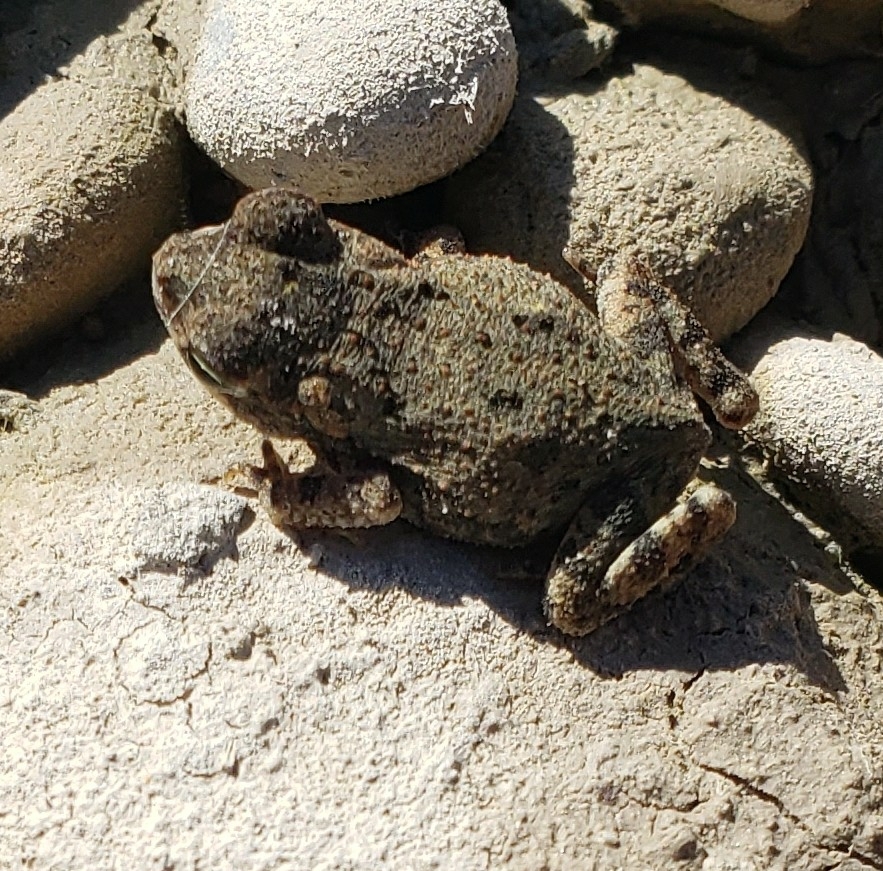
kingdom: Animalia
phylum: Chordata
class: Amphibia
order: Anura
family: Bufonidae
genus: Anaxyrus
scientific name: Anaxyrus punctatus
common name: Red-spotted toad
